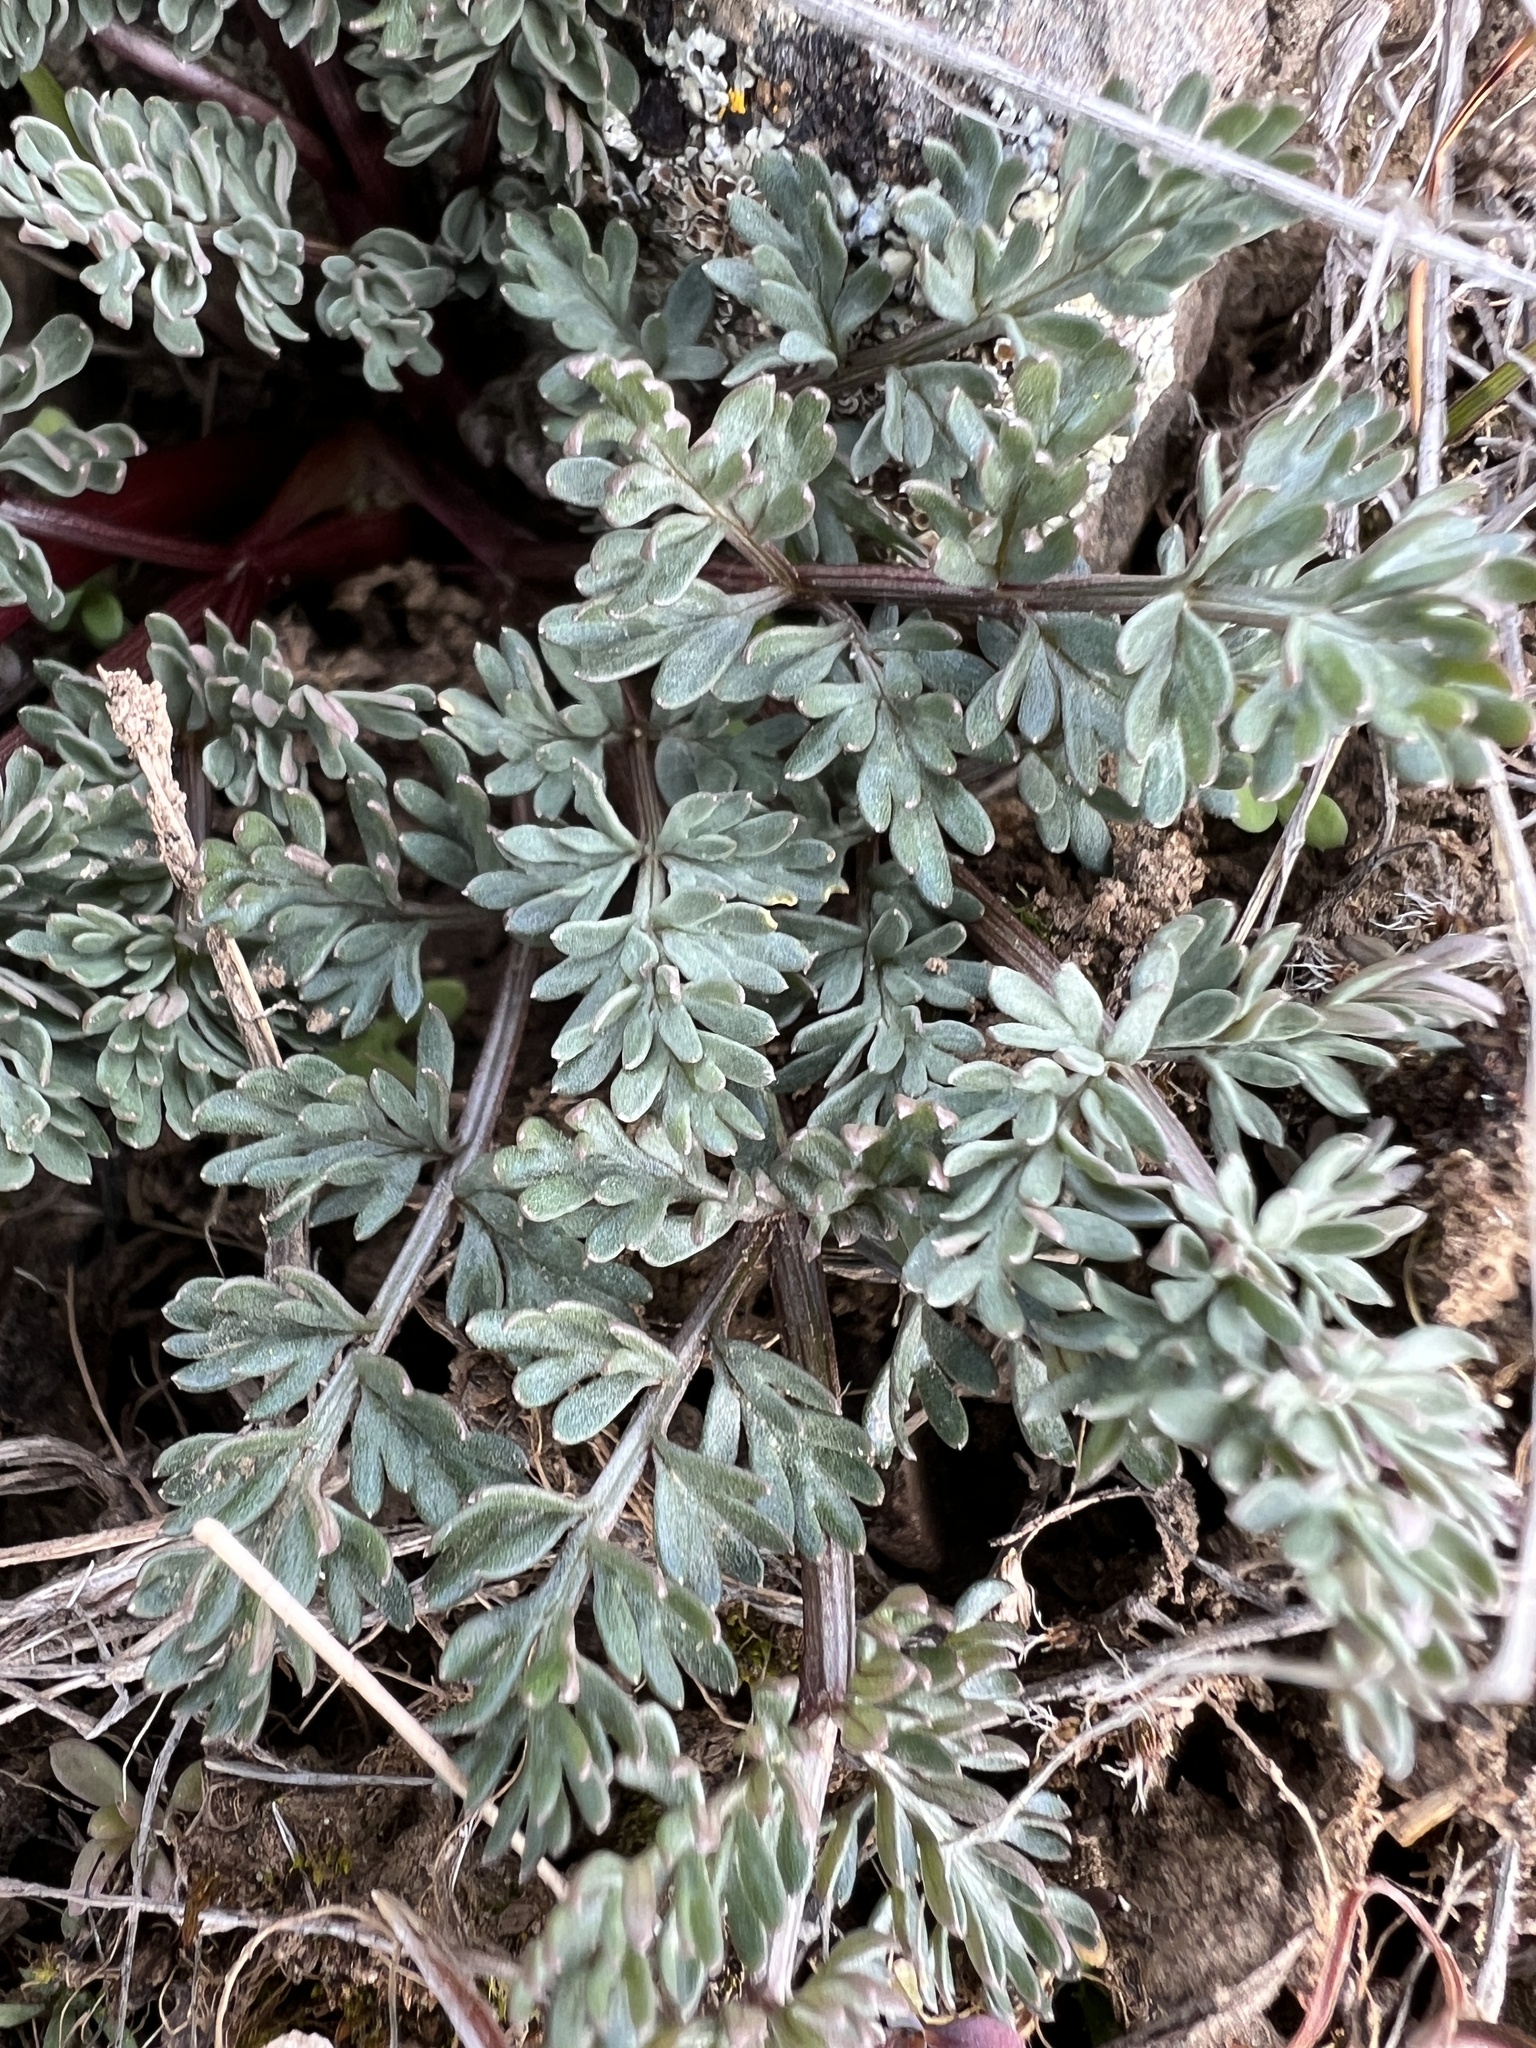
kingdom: Plantae
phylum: Tracheophyta
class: Magnoliopsida
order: Apiales
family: Apiaceae
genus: Lomatium
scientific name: Lomatium canbyi
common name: Chucklusa
